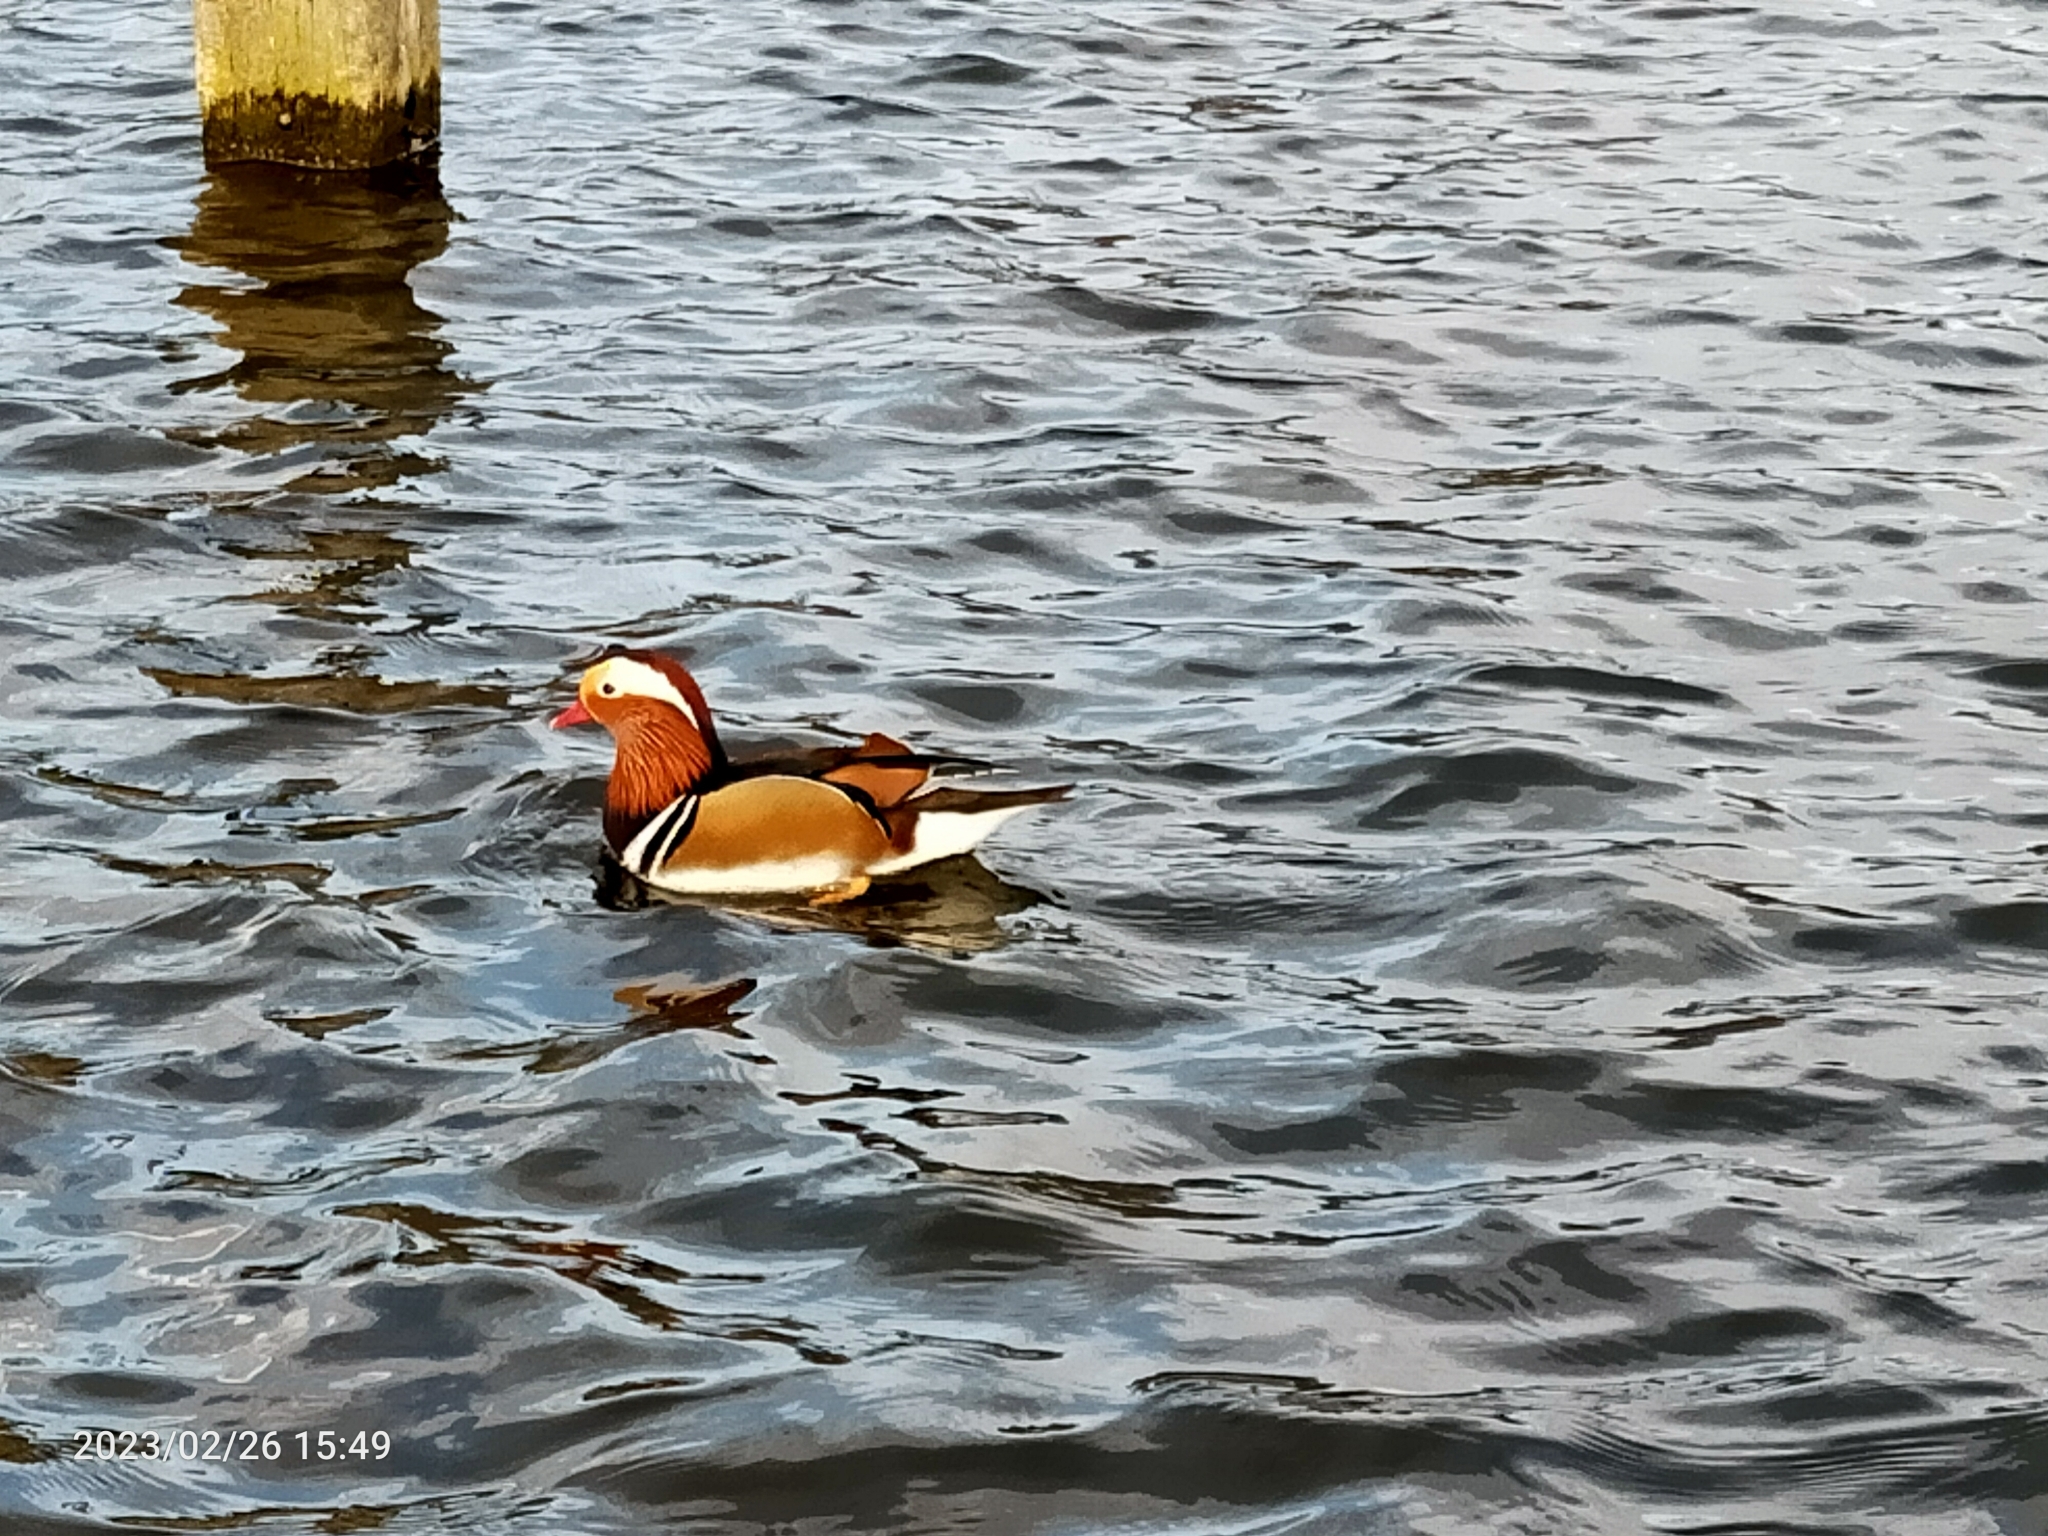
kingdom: Animalia
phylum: Chordata
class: Aves
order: Anseriformes
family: Anatidae
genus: Aix
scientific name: Aix galericulata
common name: Mandarin duck
